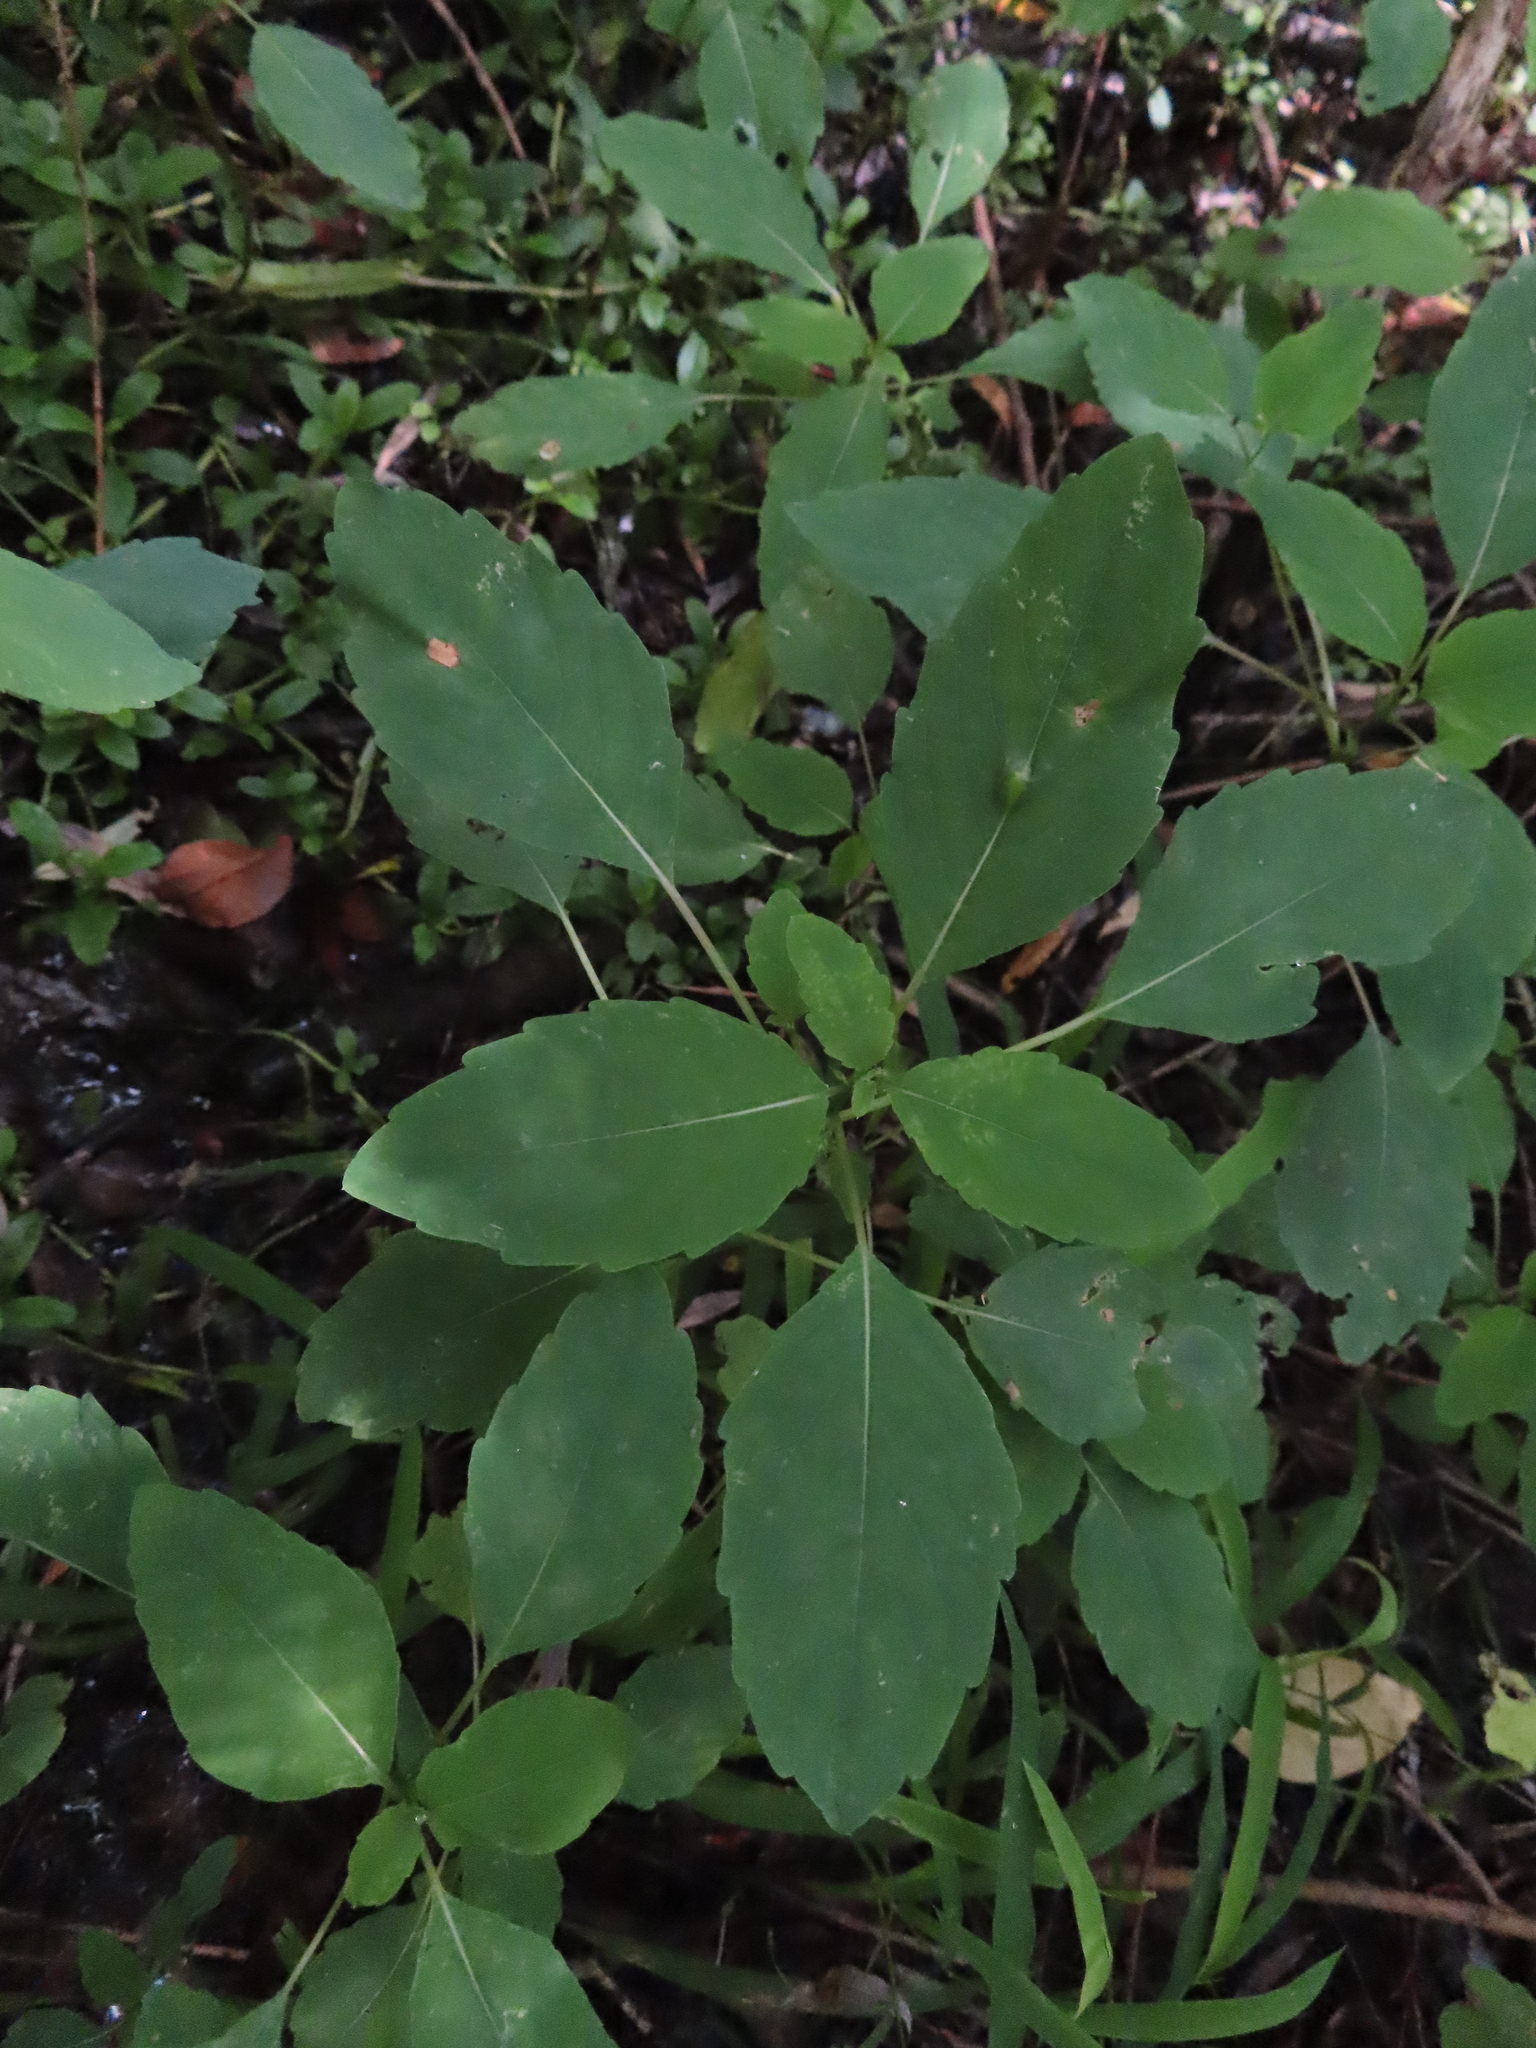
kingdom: Plantae
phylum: Tracheophyta
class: Magnoliopsida
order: Ericales
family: Balsaminaceae
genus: Impatiens
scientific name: Impatiens capensis
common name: Orange balsam
